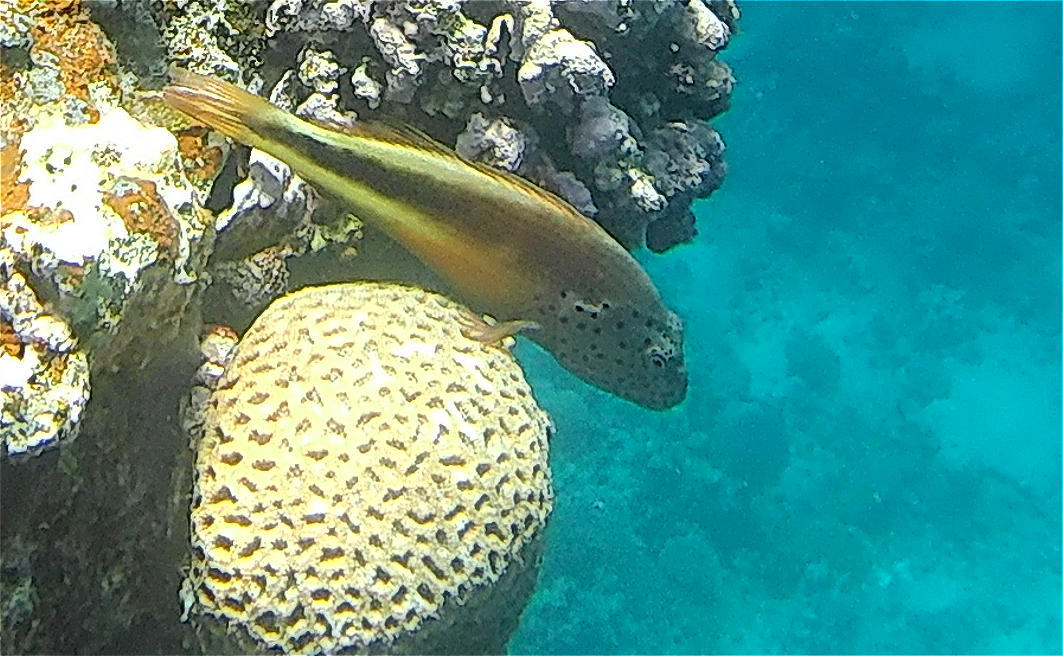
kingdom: Animalia
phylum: Chordata
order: Perciformes
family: Cirrhitidae
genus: Paracirrhites
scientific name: Paracirrhites forsteri
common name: Freckled hawkfish
